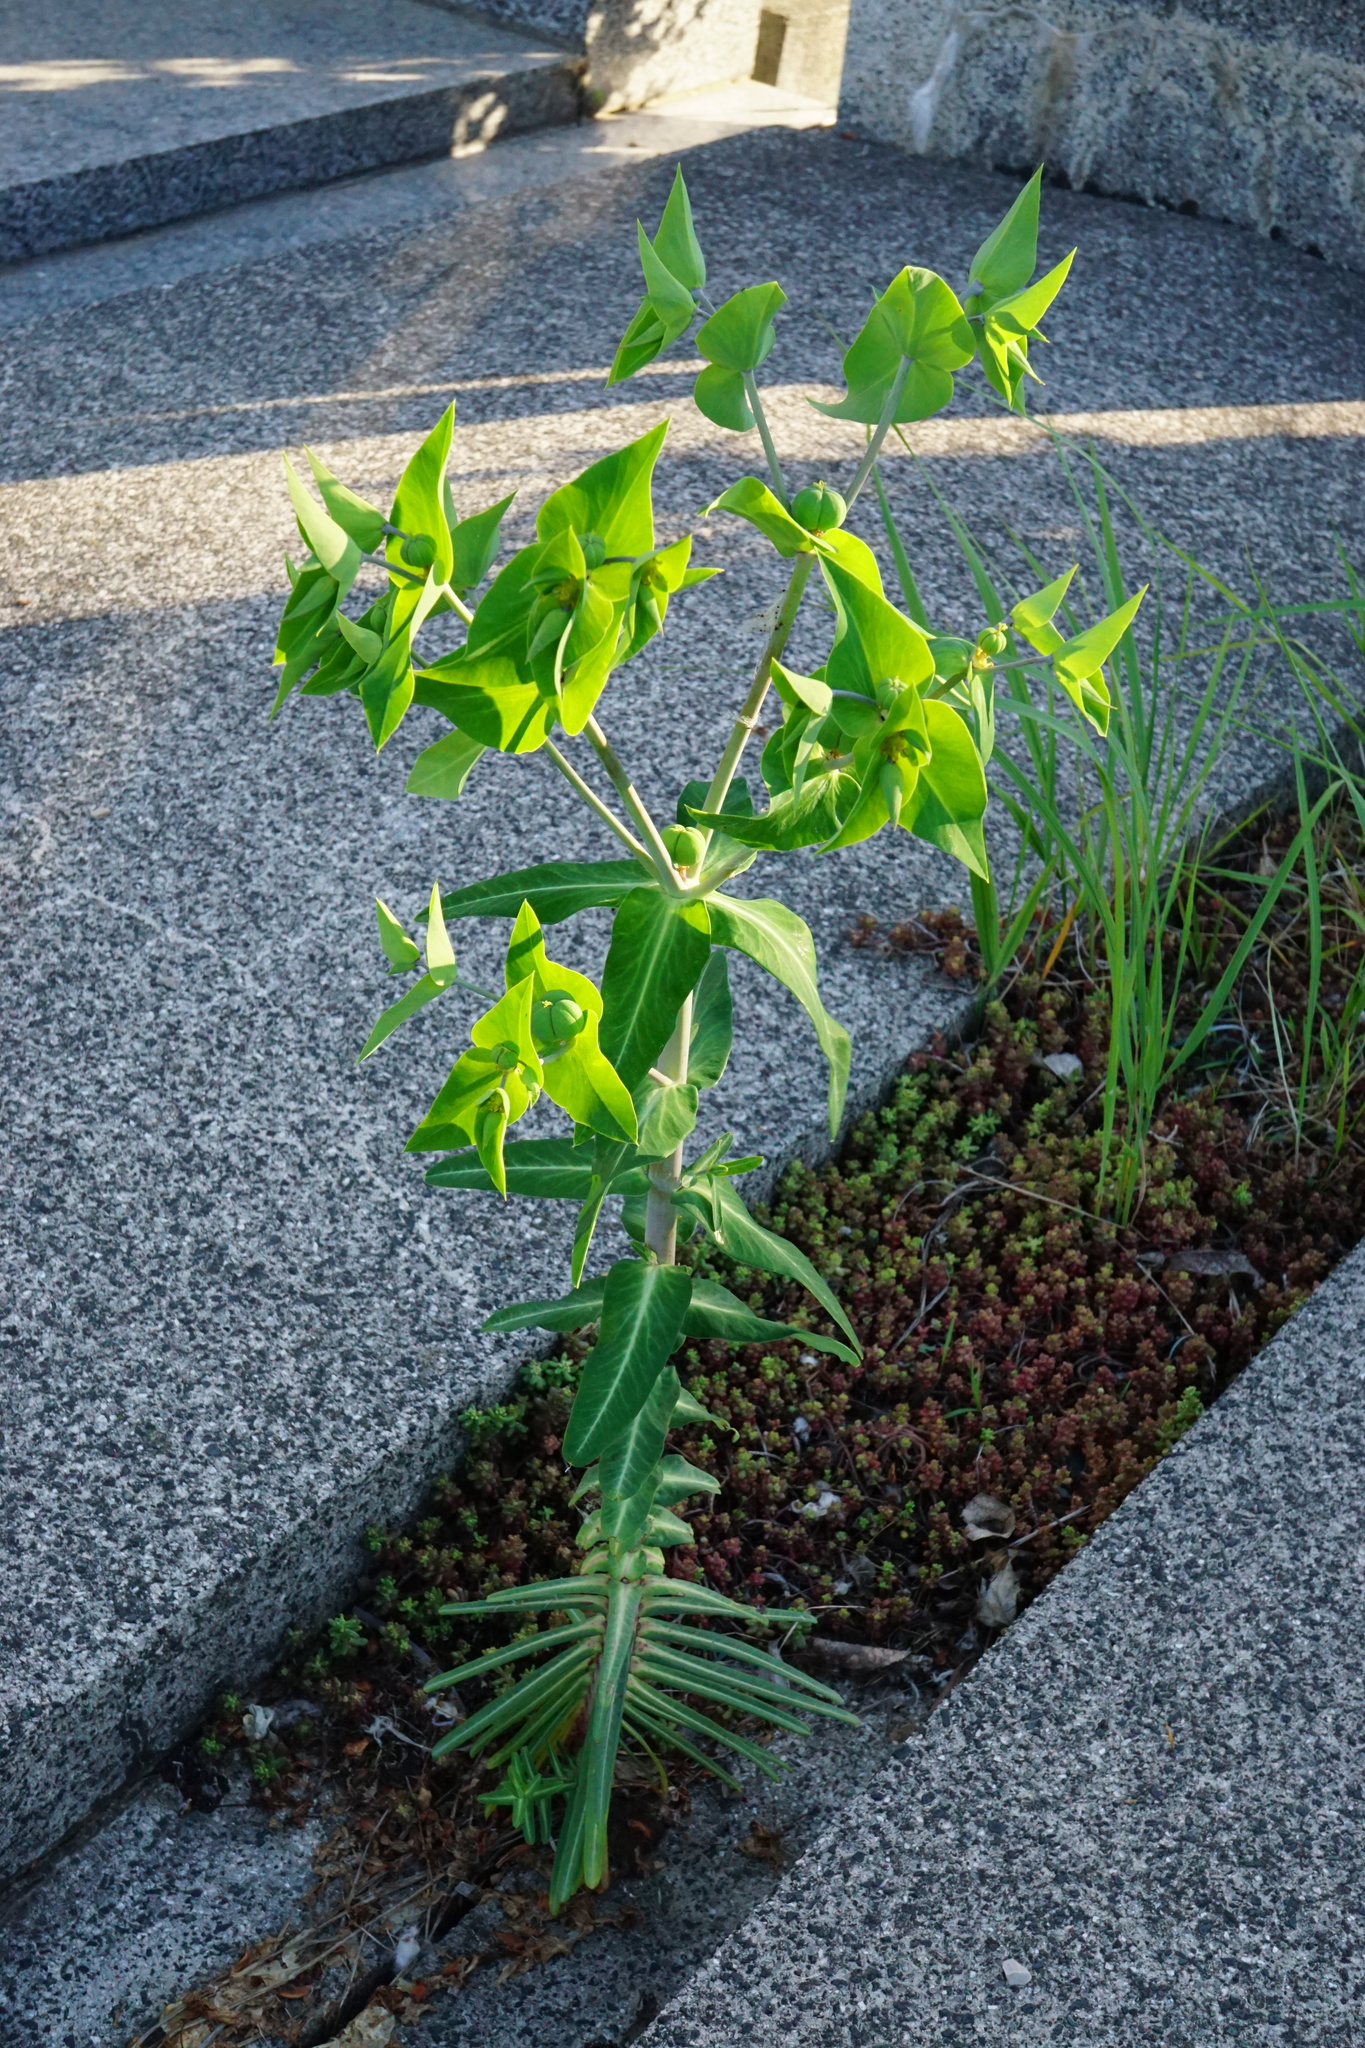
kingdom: Plantae
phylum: Tracheophyta
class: Magnoliopsida
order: Malpighiales
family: Euphorbiaceae
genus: Euphorbia
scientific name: Euphorbia lathyris
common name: Caper spurge
